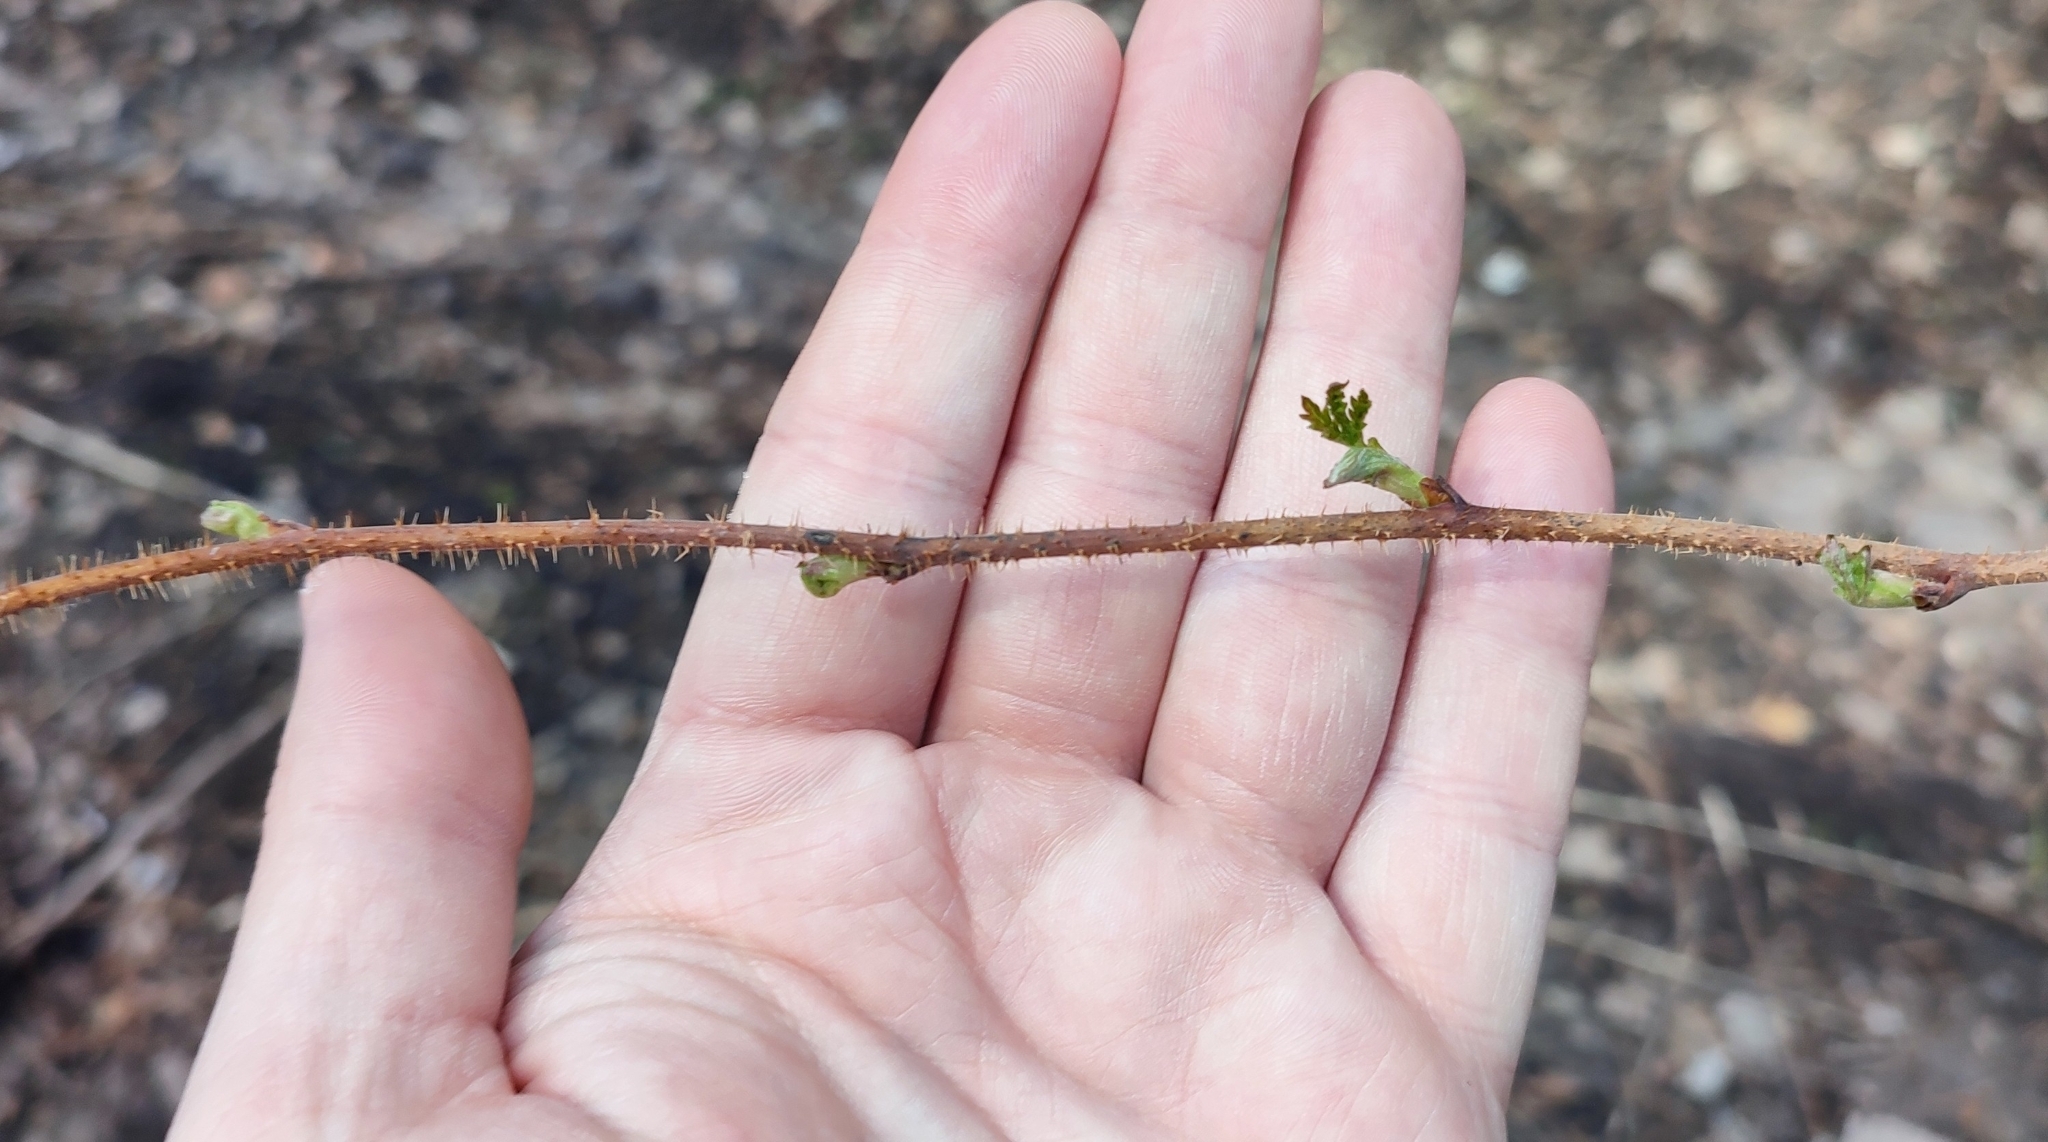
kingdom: Plantae
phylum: Tracheophyta
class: Magnoliopsida
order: Rosales
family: Rosaceae
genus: Rubus
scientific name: Rubus idaeus
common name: Raspberry
